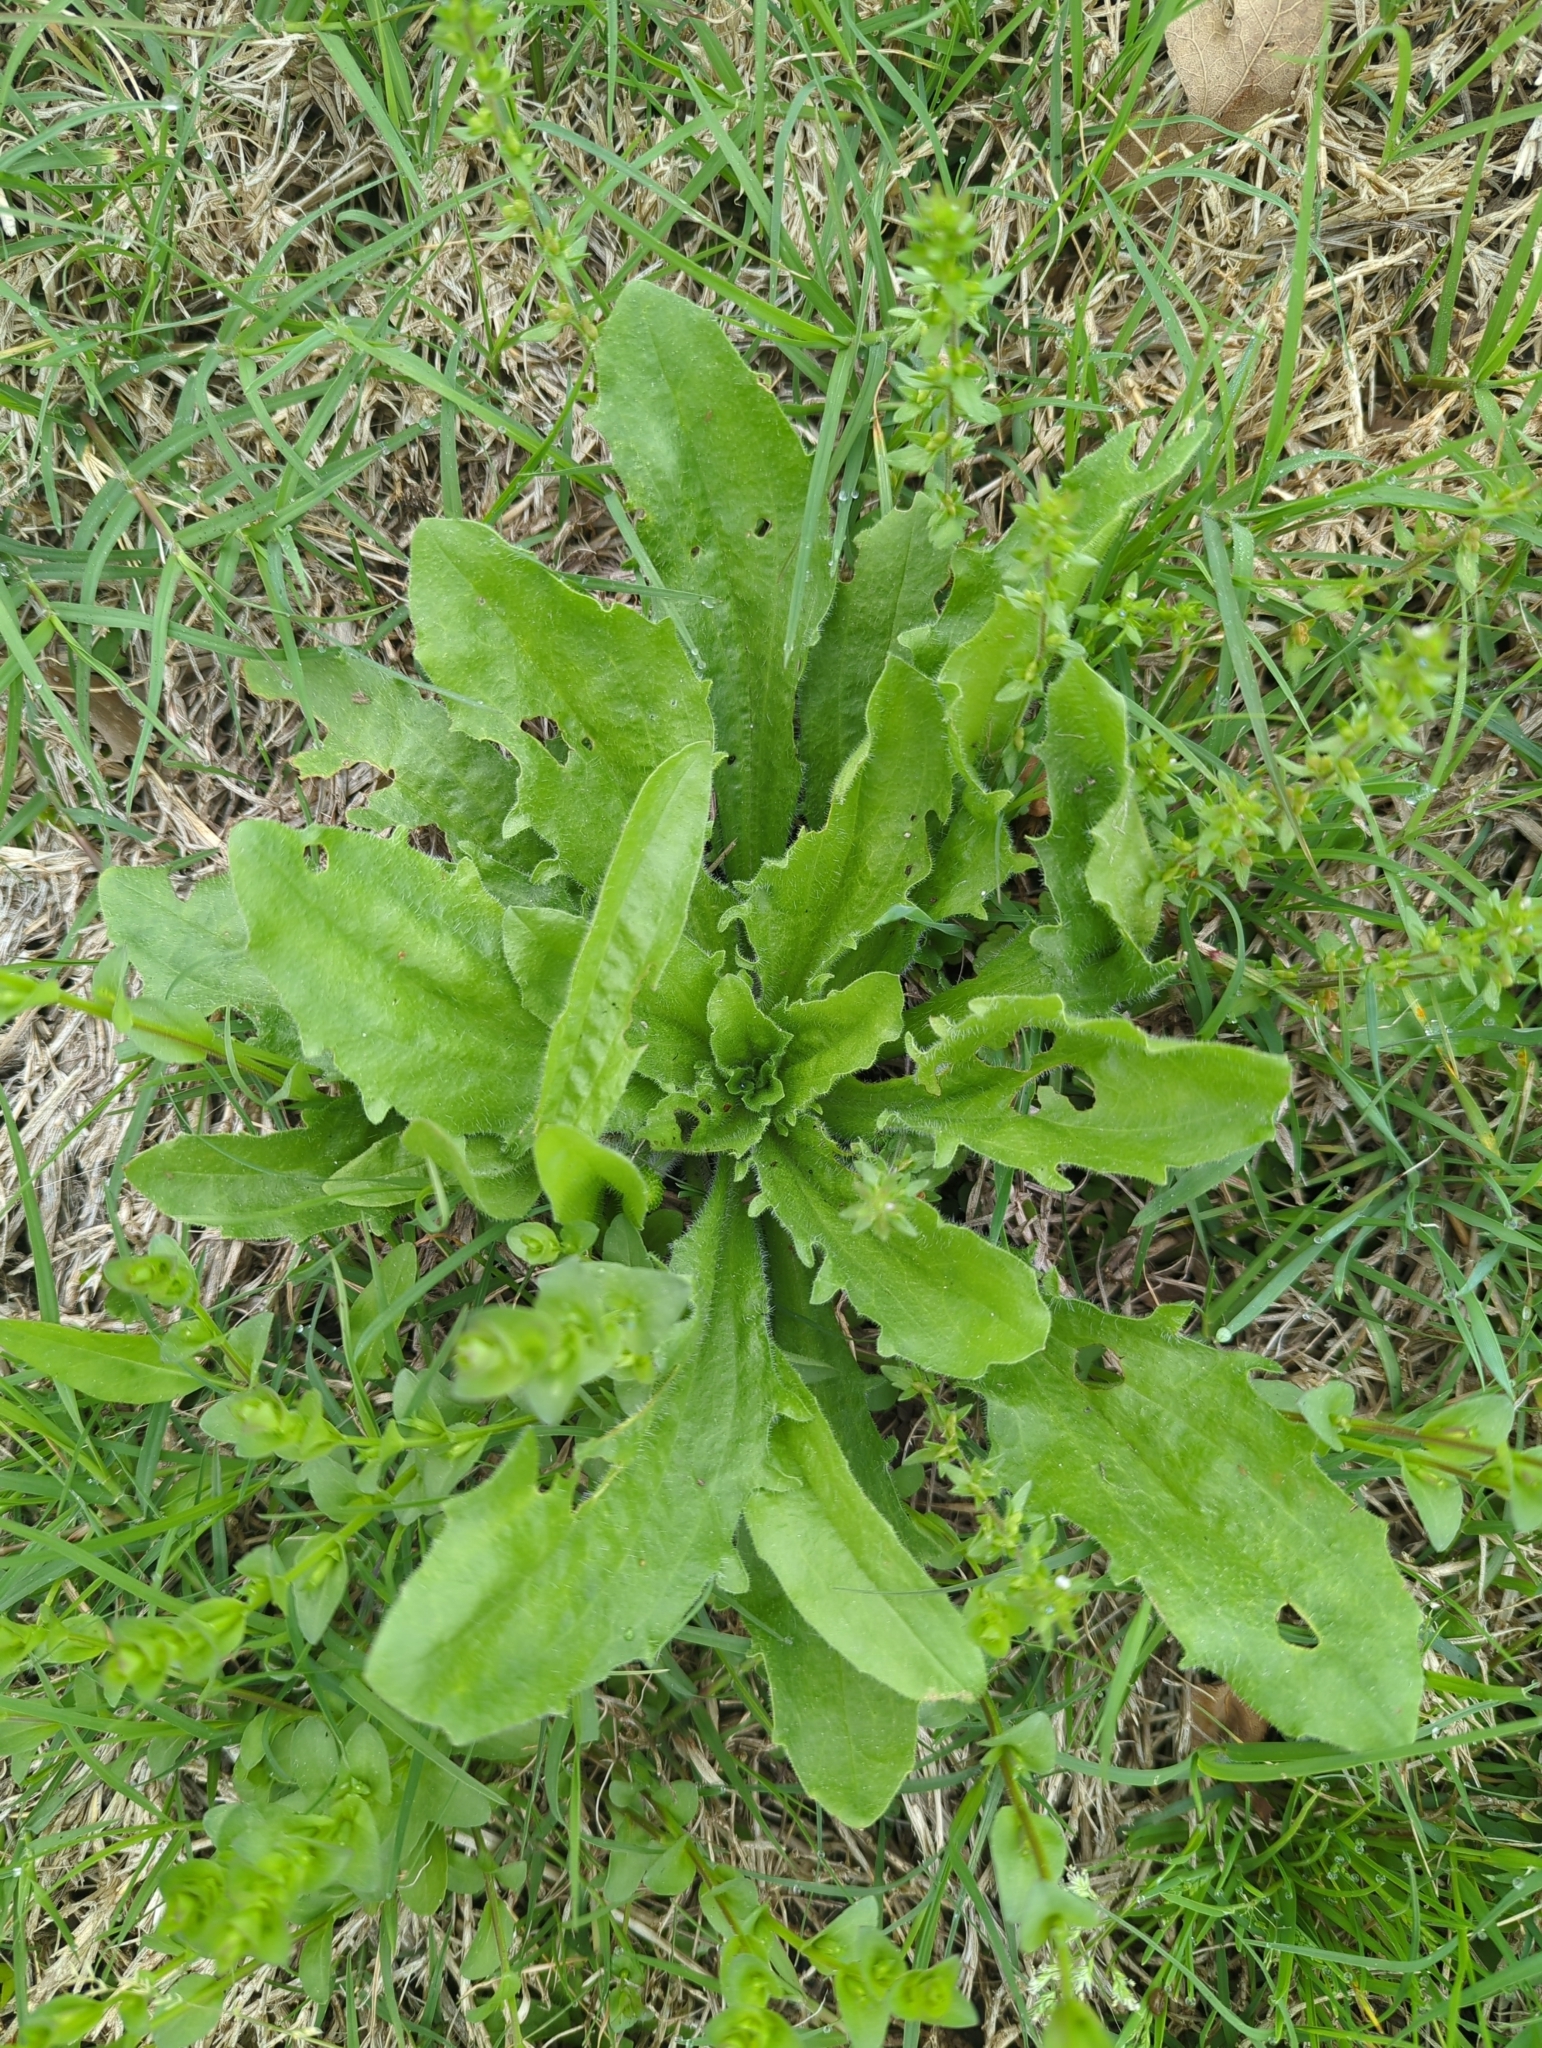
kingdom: Plantae
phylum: Tracheophyta
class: Magnoliopsida
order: Lamiales
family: Plantaginaceae
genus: Plantago
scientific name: Plantago rhodosperma
